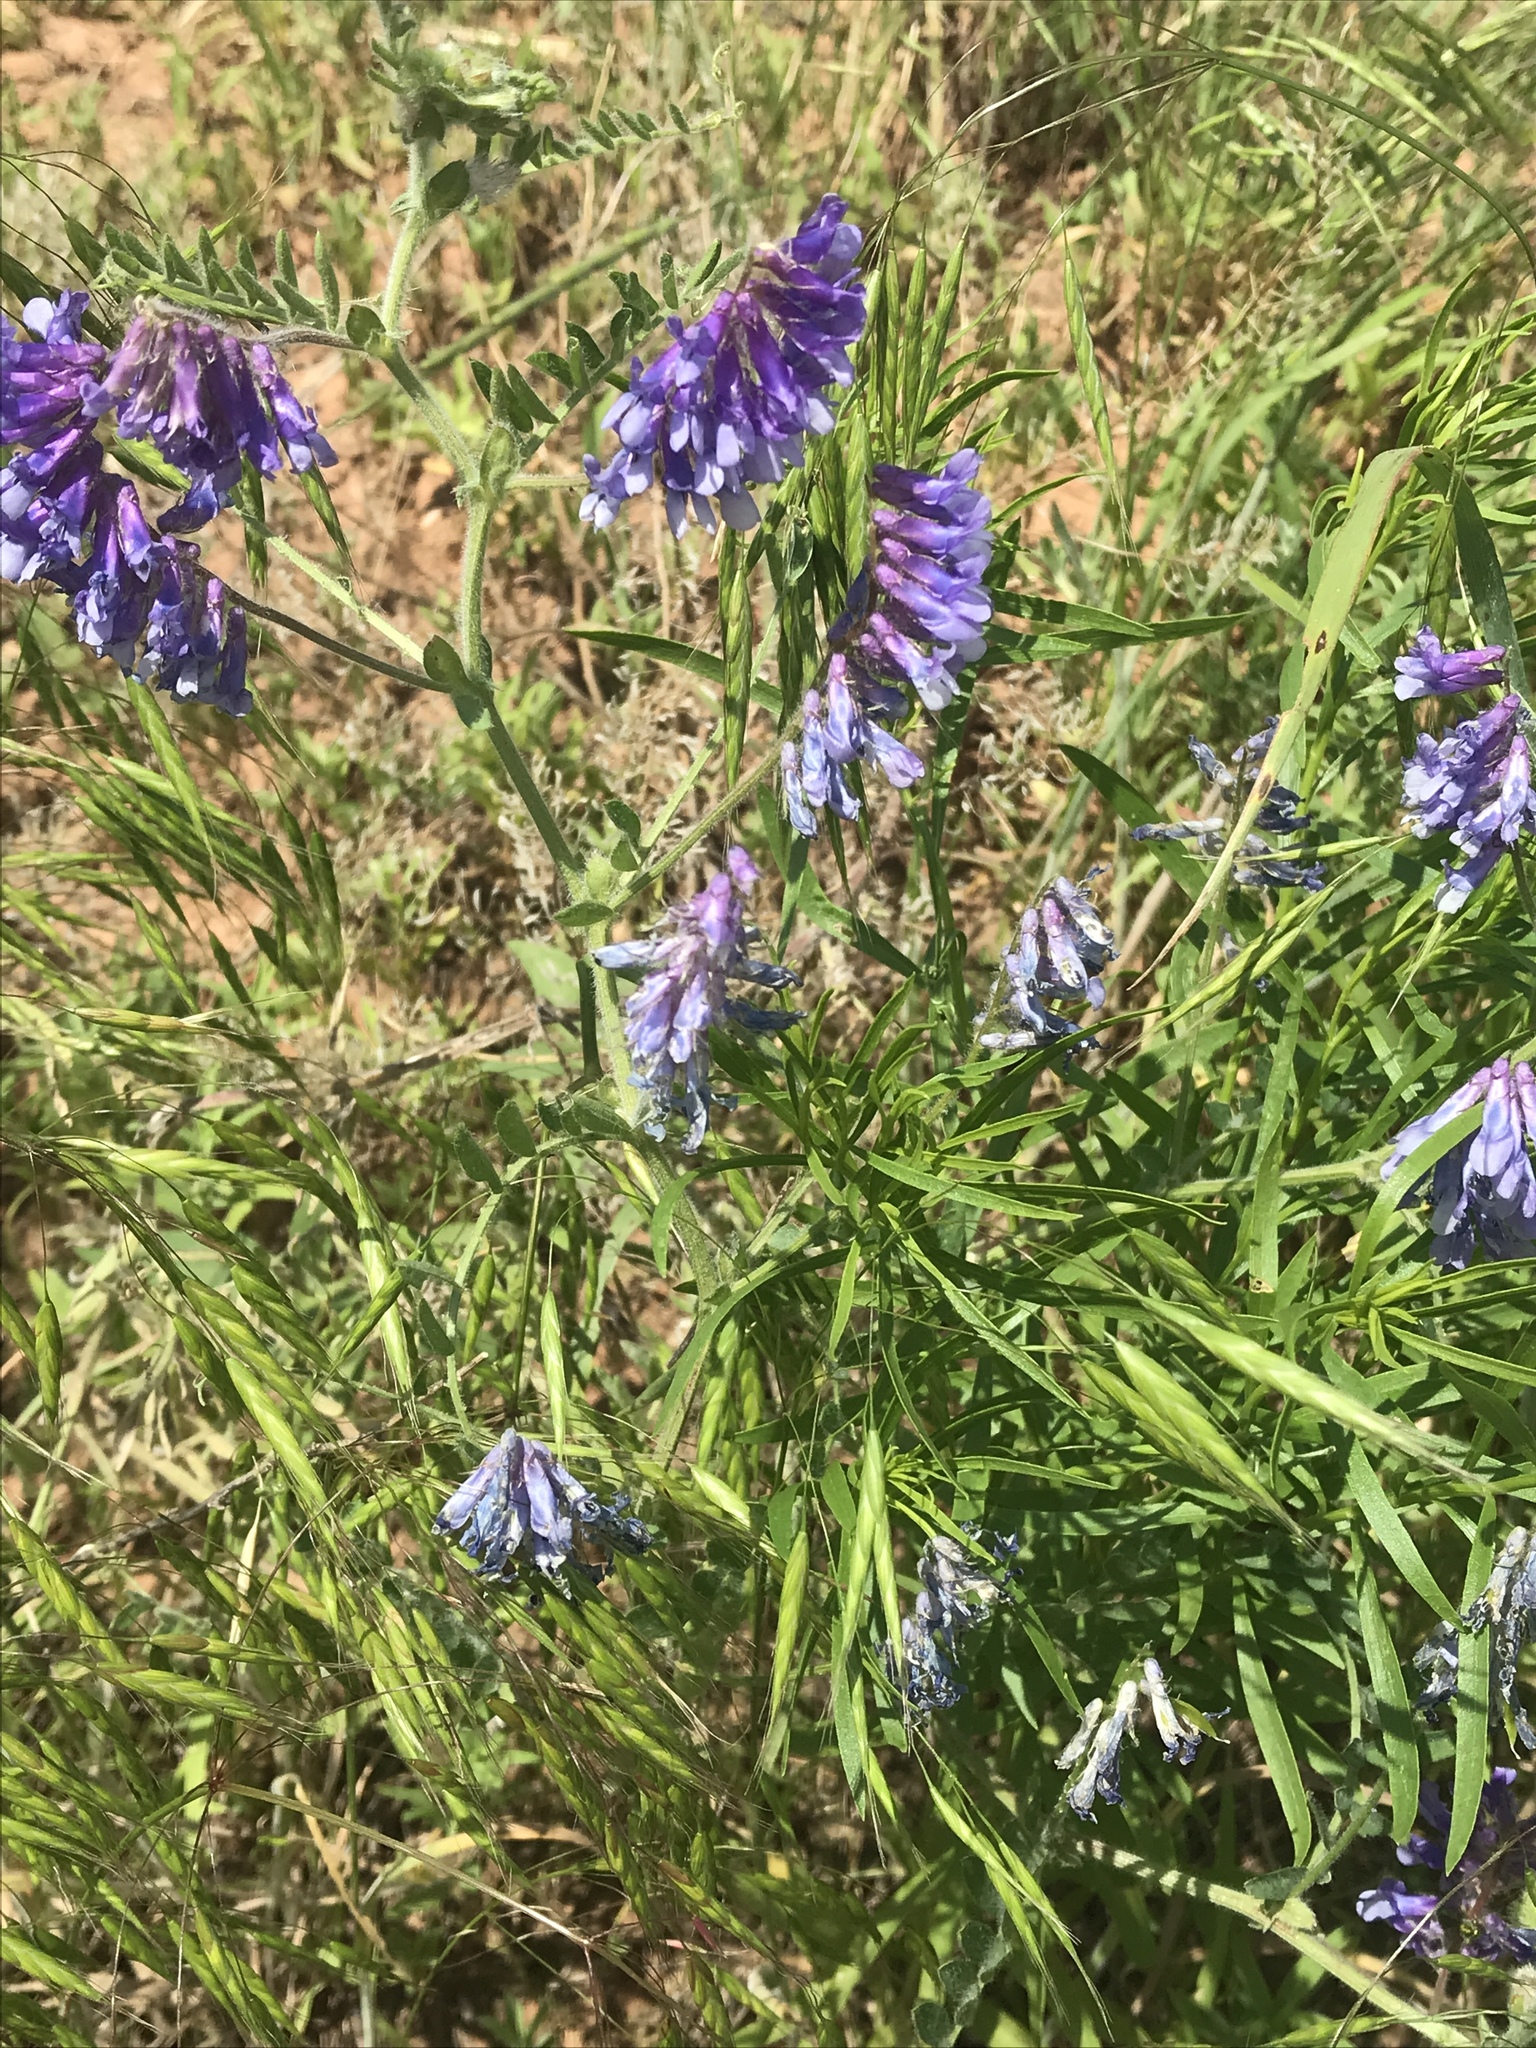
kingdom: Plantae
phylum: Tracheophyta
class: Magnoliopsida
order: Fabales
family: Fabaceae
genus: Vicia
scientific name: Vicia villosa
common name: Fodder vetch
